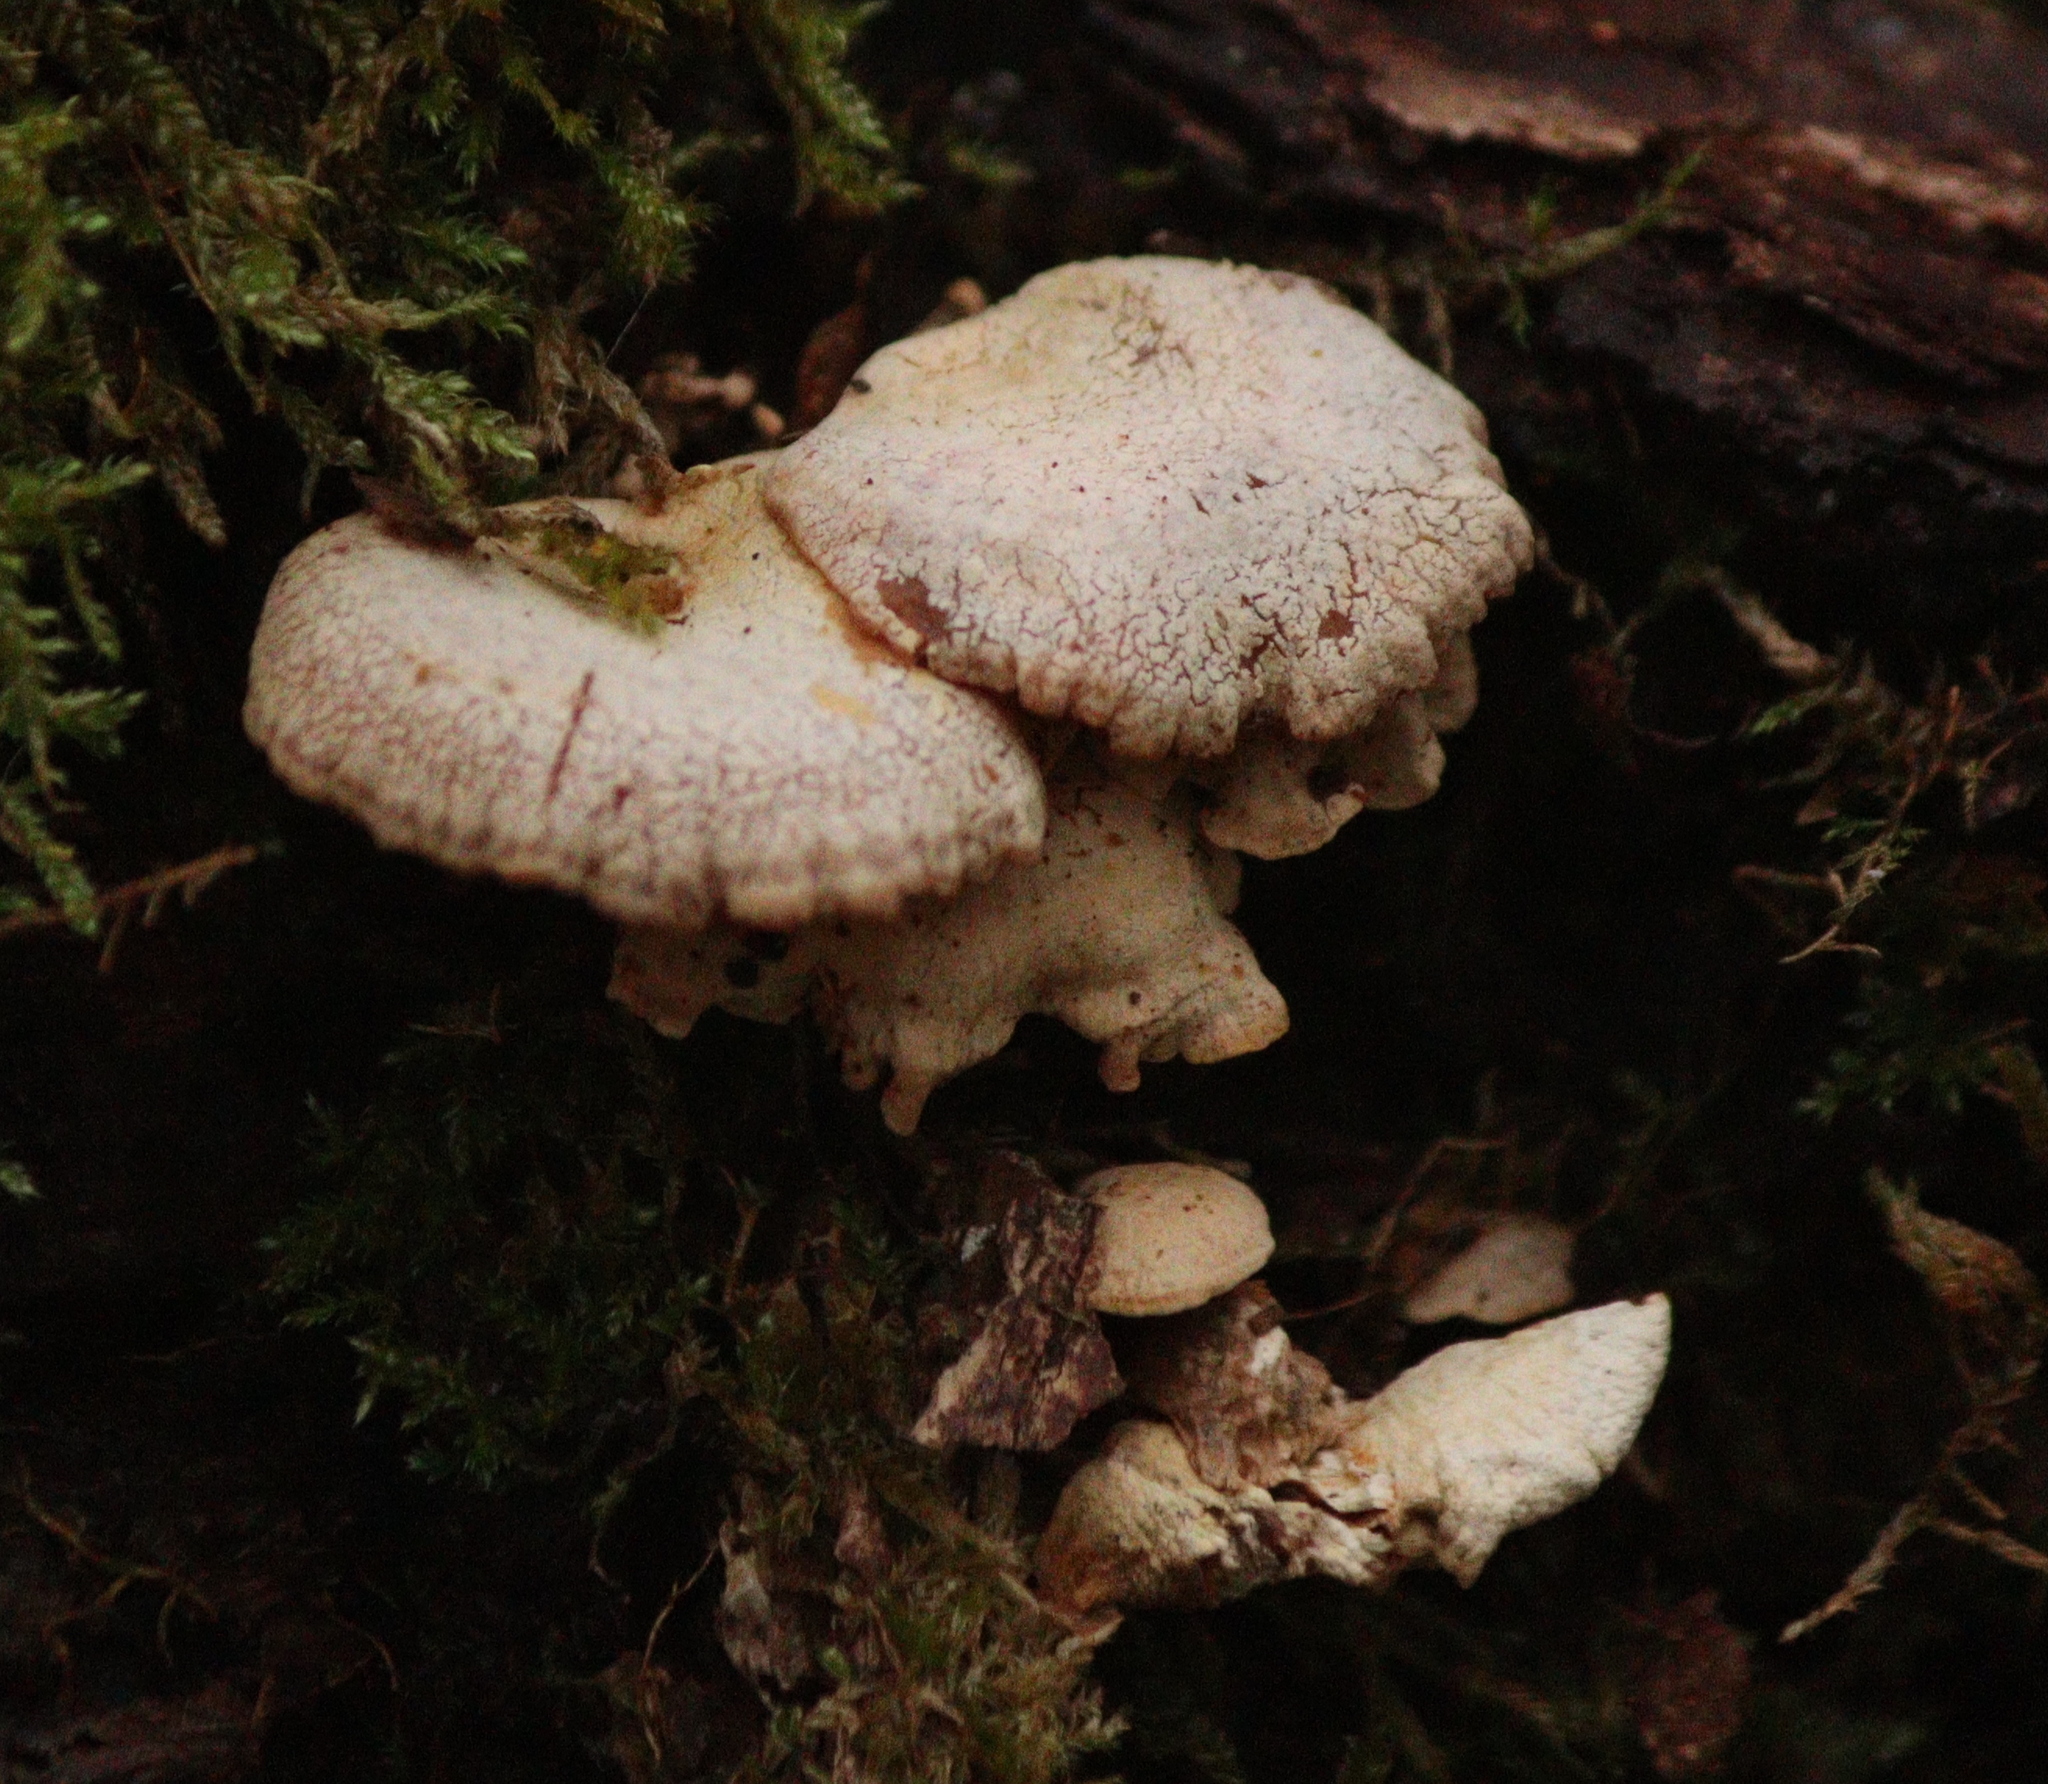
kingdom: Fungi
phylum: Basidiomycota
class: Agaricomycetes
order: Agaricales
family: Mycenaceae
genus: Panellus
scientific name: Panellus stipticus
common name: Bitter oysterling
